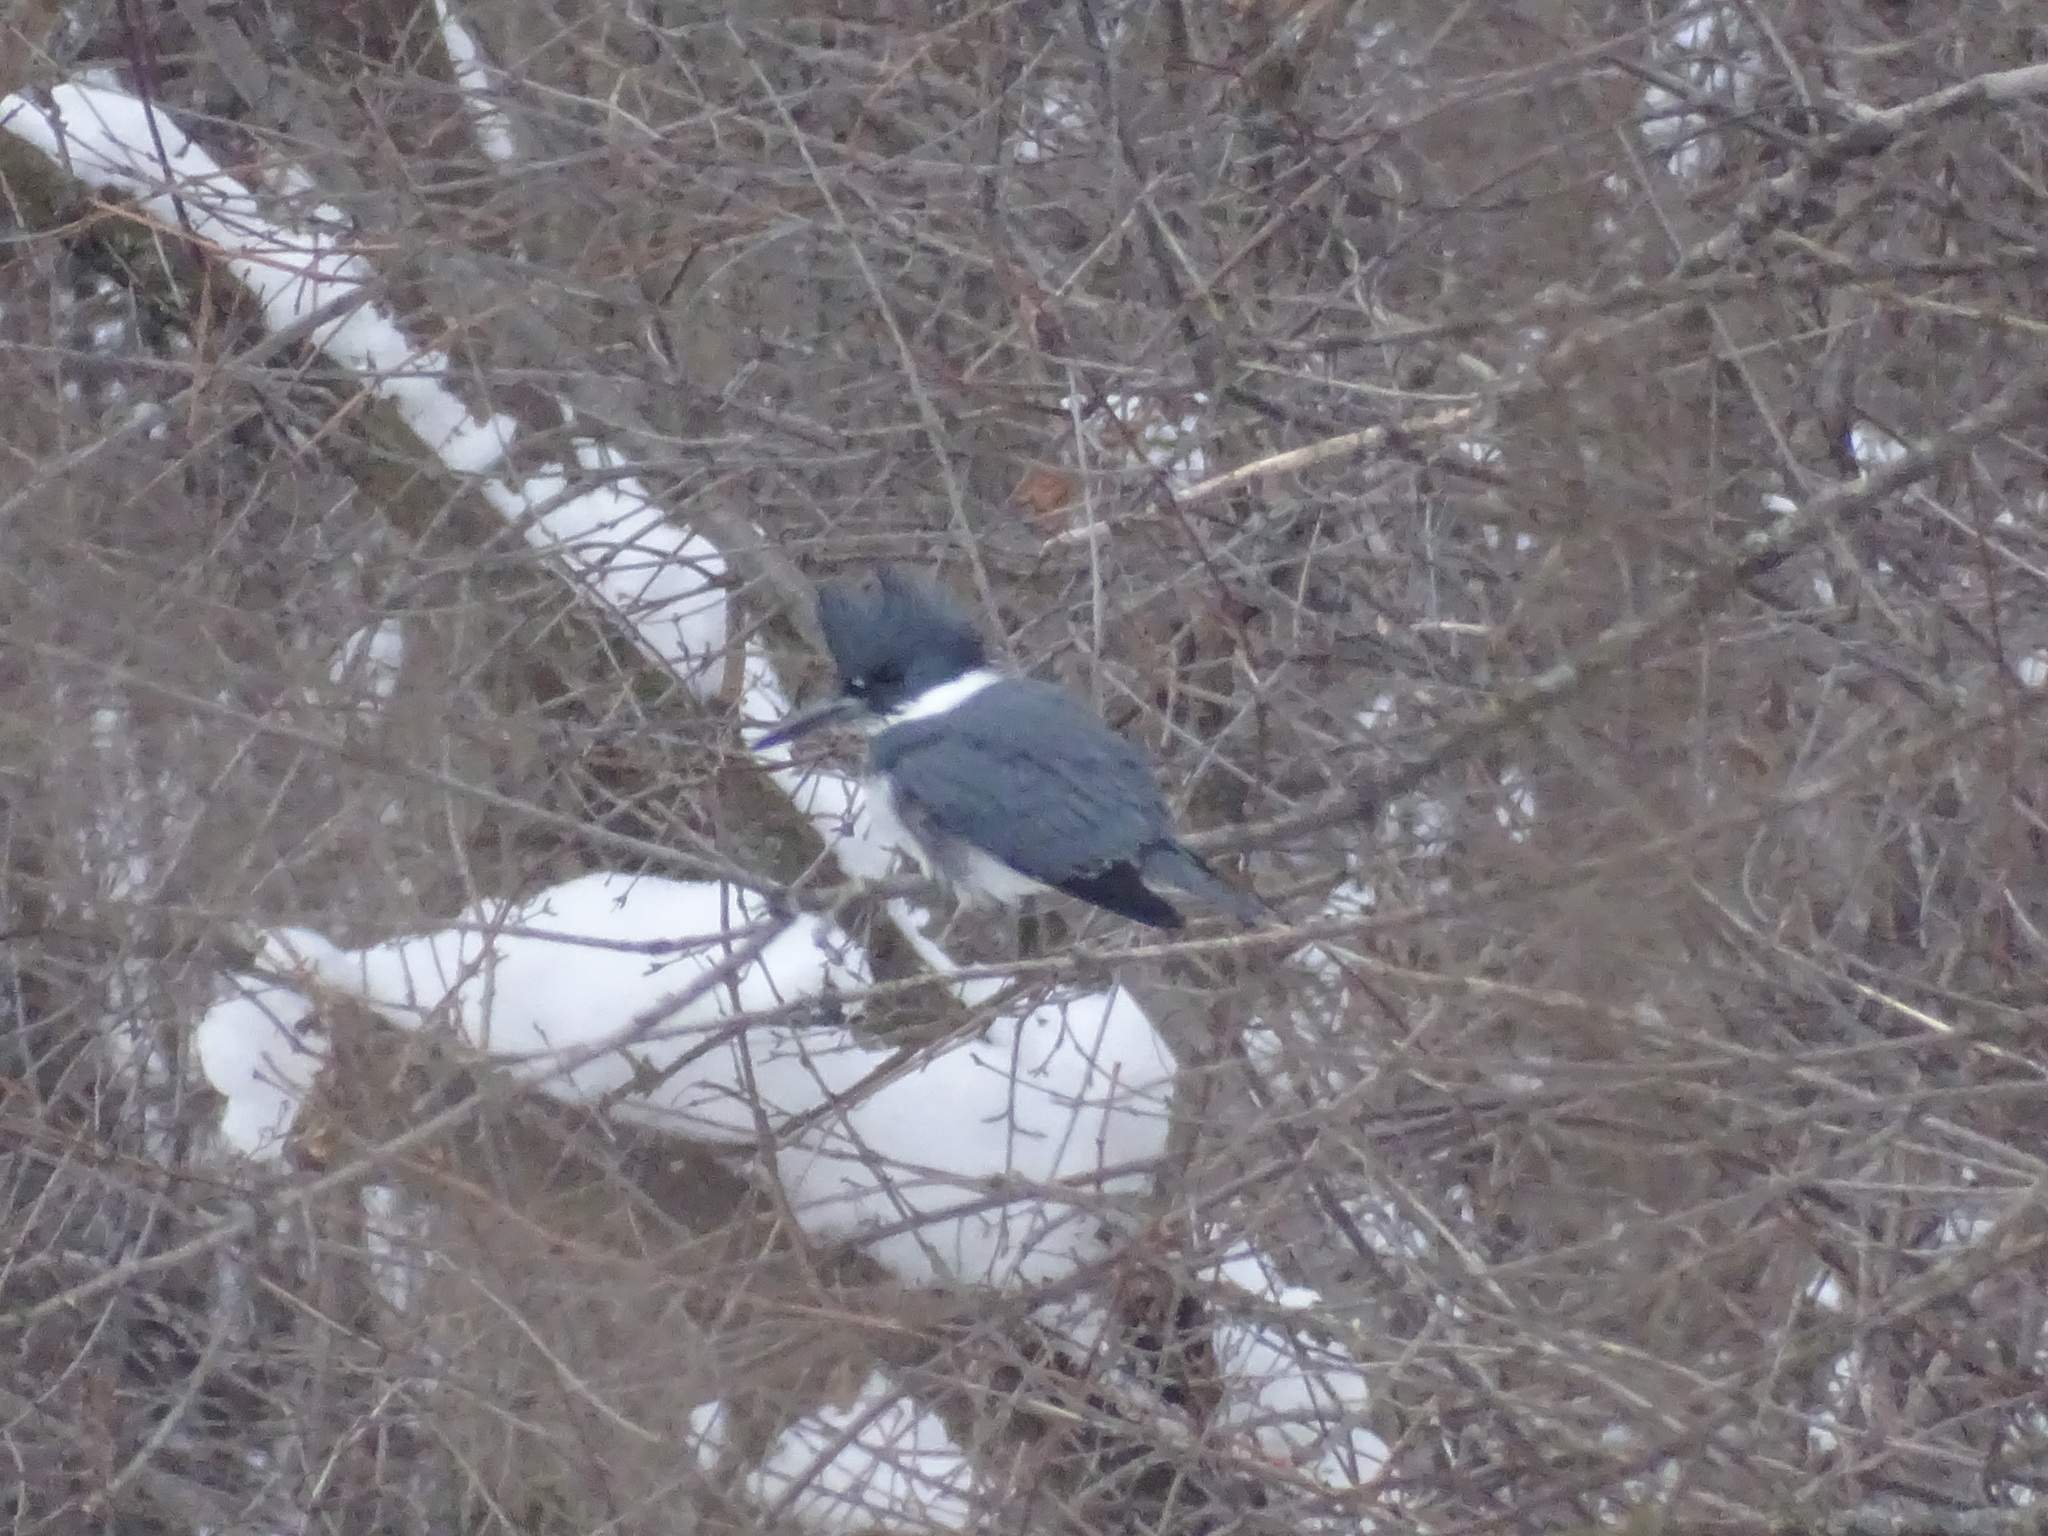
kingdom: Animalia
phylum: Chordata
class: Aves
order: Coraciiformes
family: Alcedinidae
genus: Megaceryle
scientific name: Megaceryle alcyon
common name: Belted kingfisher
